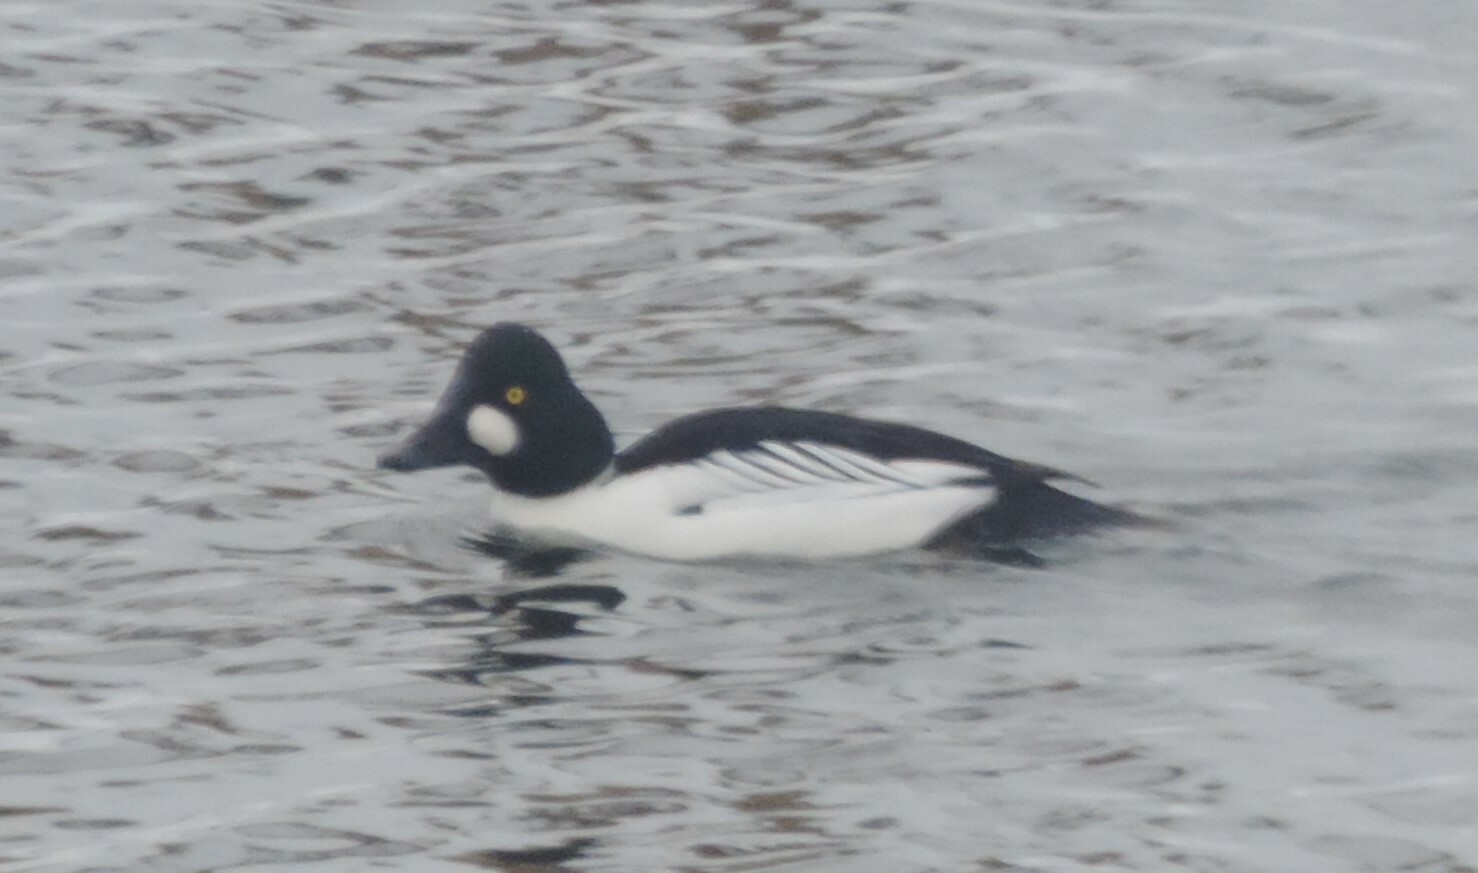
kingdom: Animalia
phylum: Chordata
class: Aves
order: Anseriformes
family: Anatidae
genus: Bucephala
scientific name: Bucephala clangula
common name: Common goldeneye
